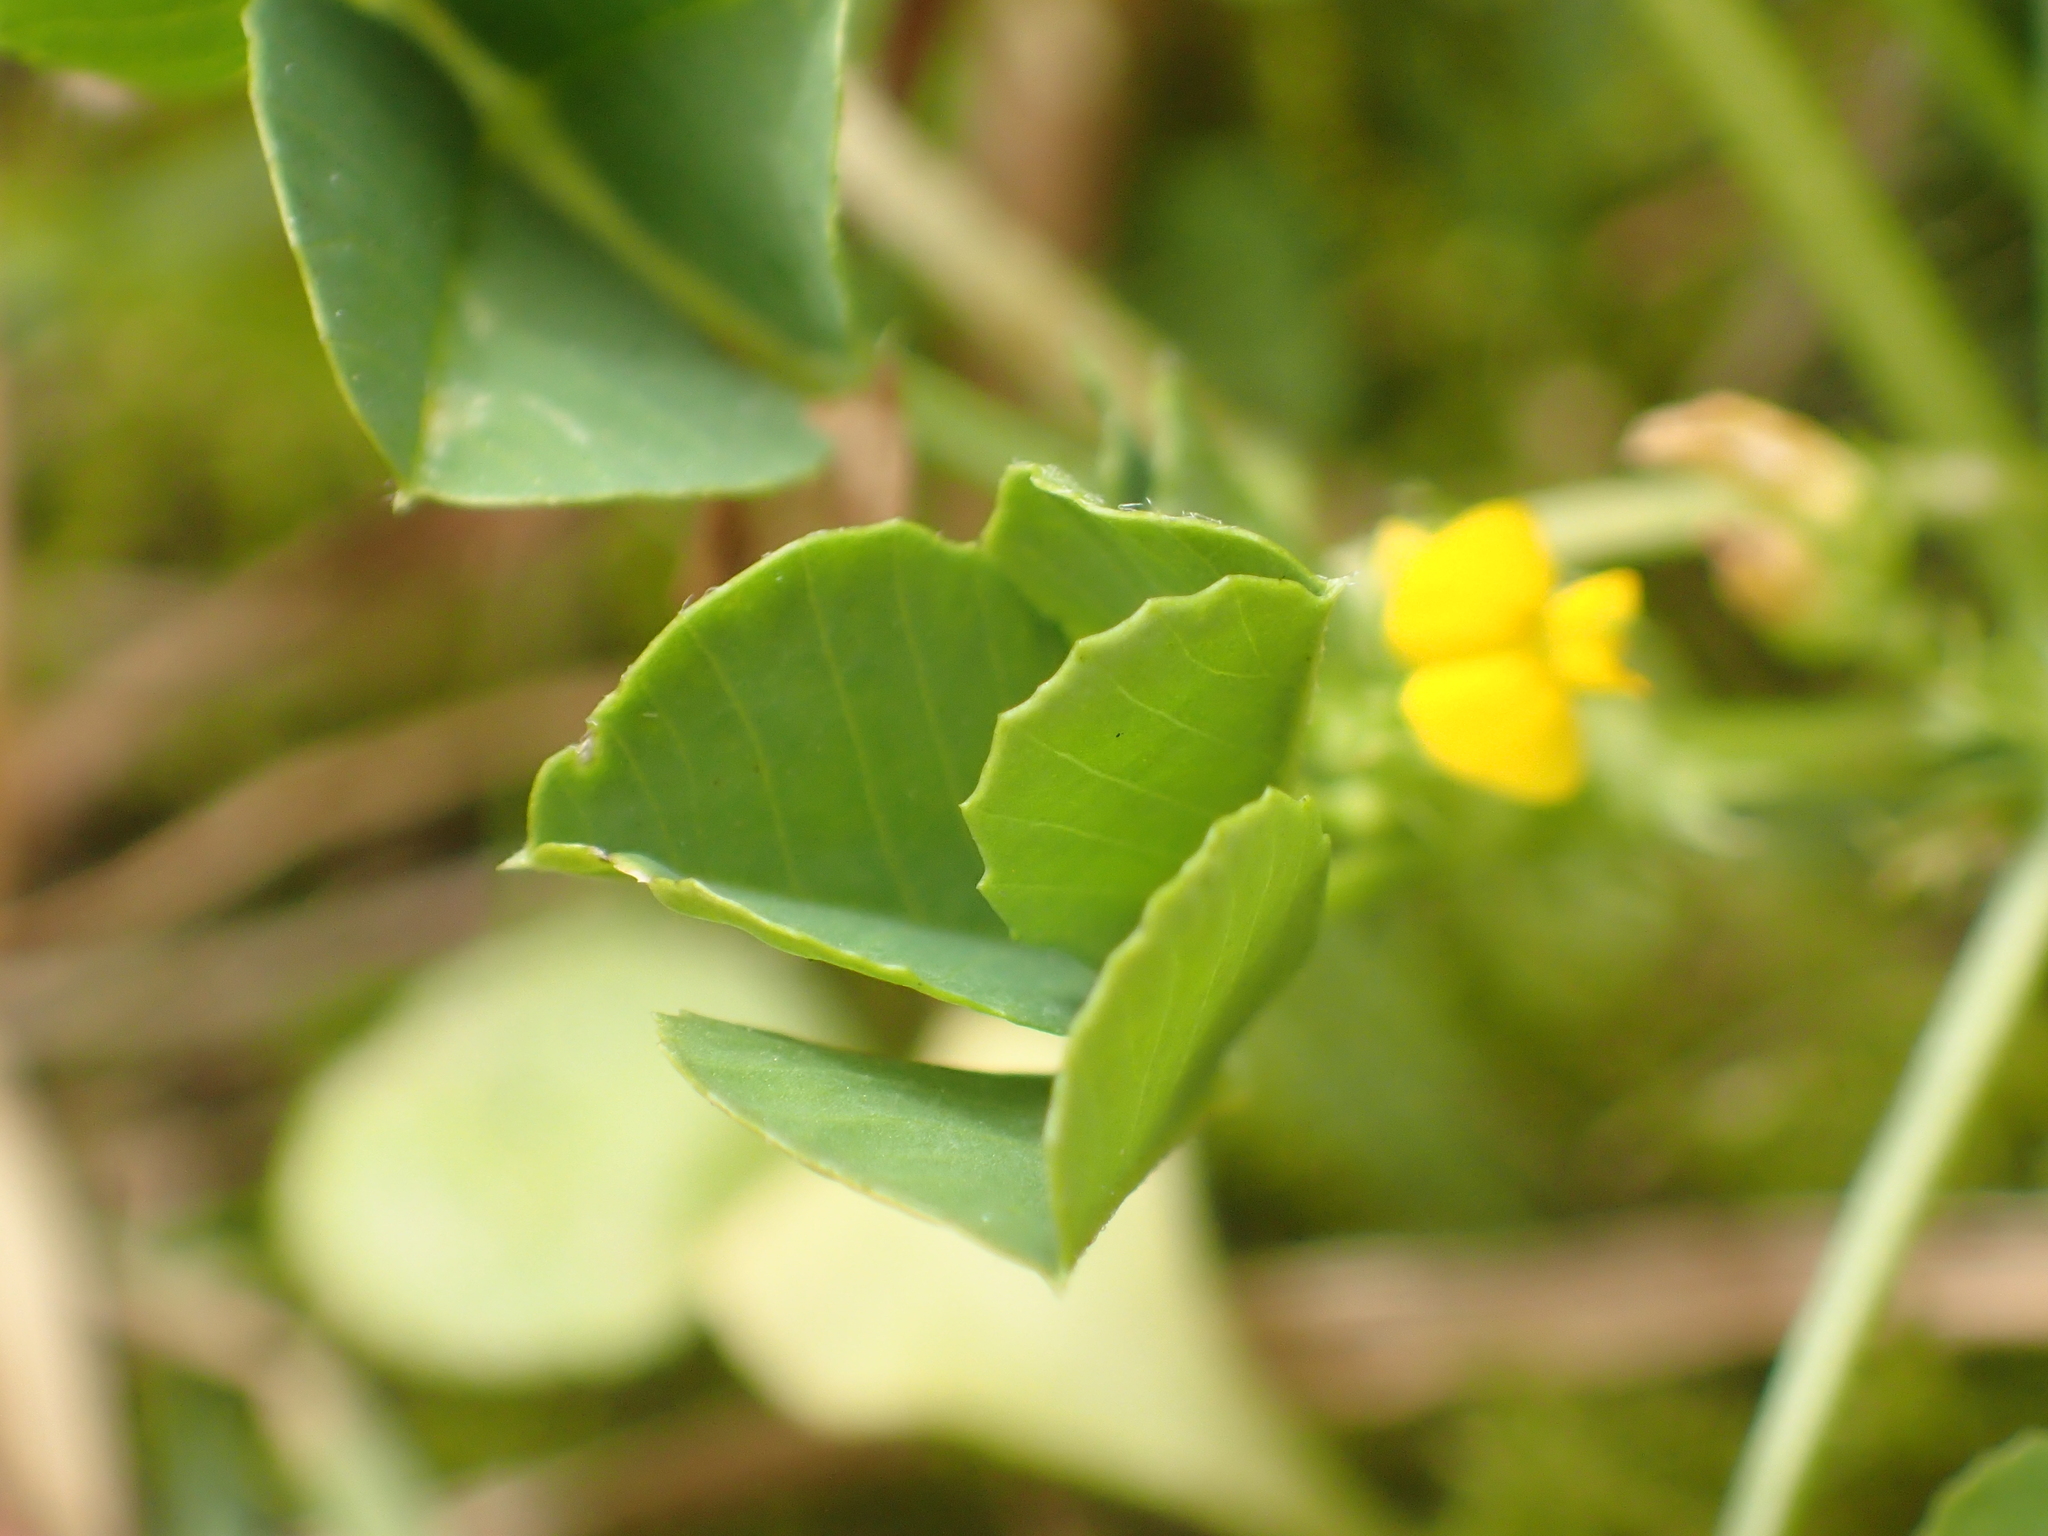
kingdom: Plantae
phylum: Tracheophyta
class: Magnoliopsida
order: Fabales
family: Fabaceae
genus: Medicago
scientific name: Medicago polymorpha
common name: Burclover
